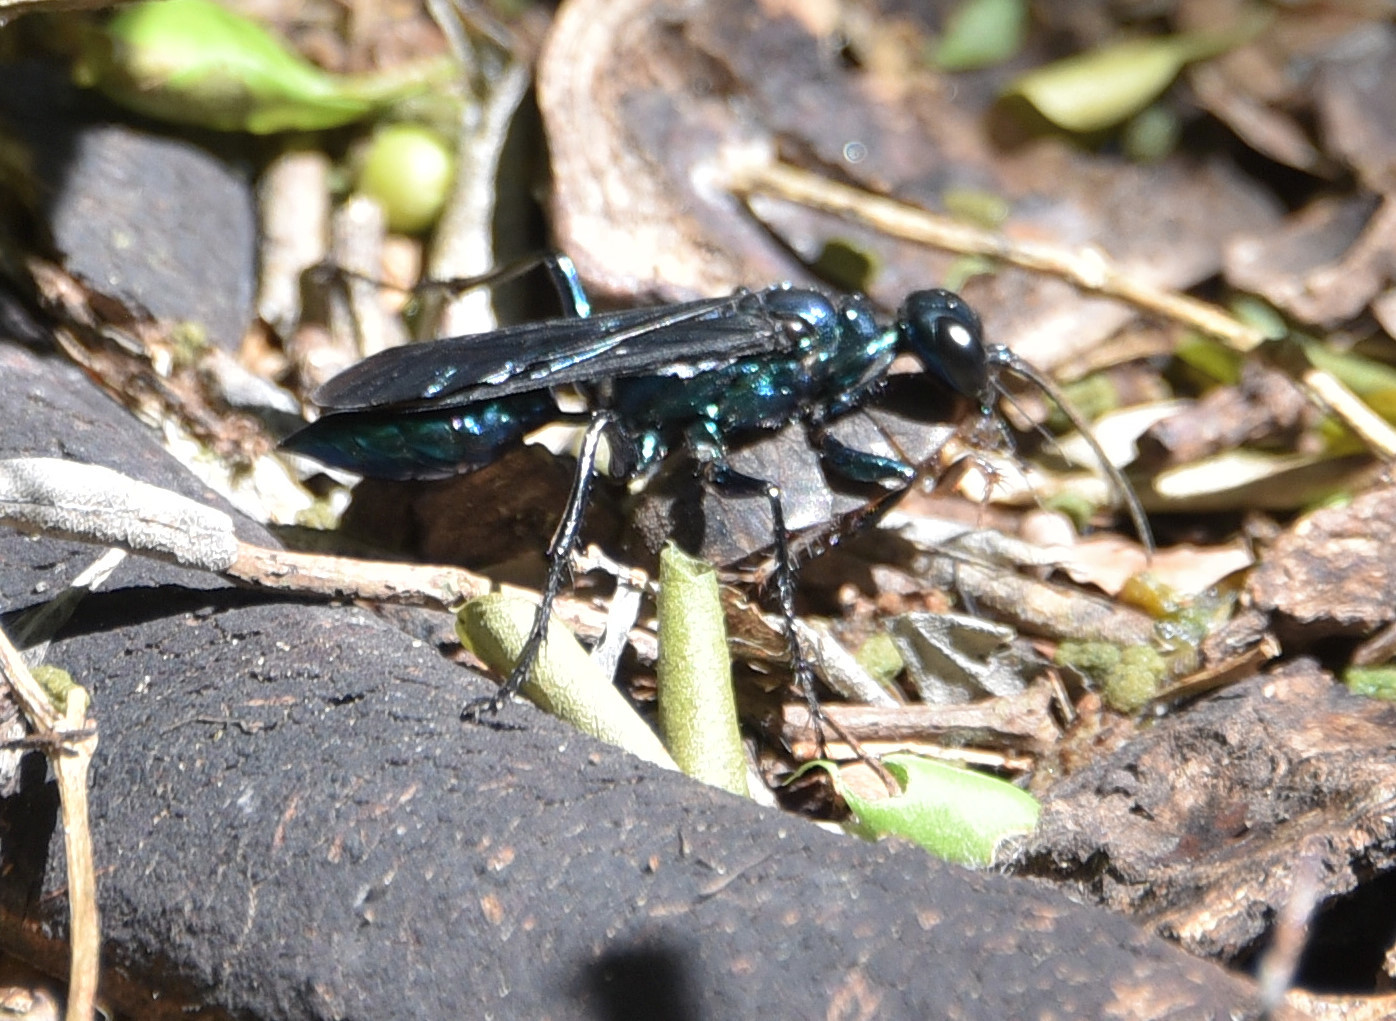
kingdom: Animalia
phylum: Arthropoda
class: Insecta
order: Hymenoptera
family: Sphecidae
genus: Chlorion
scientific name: Chlorion cyaneum
